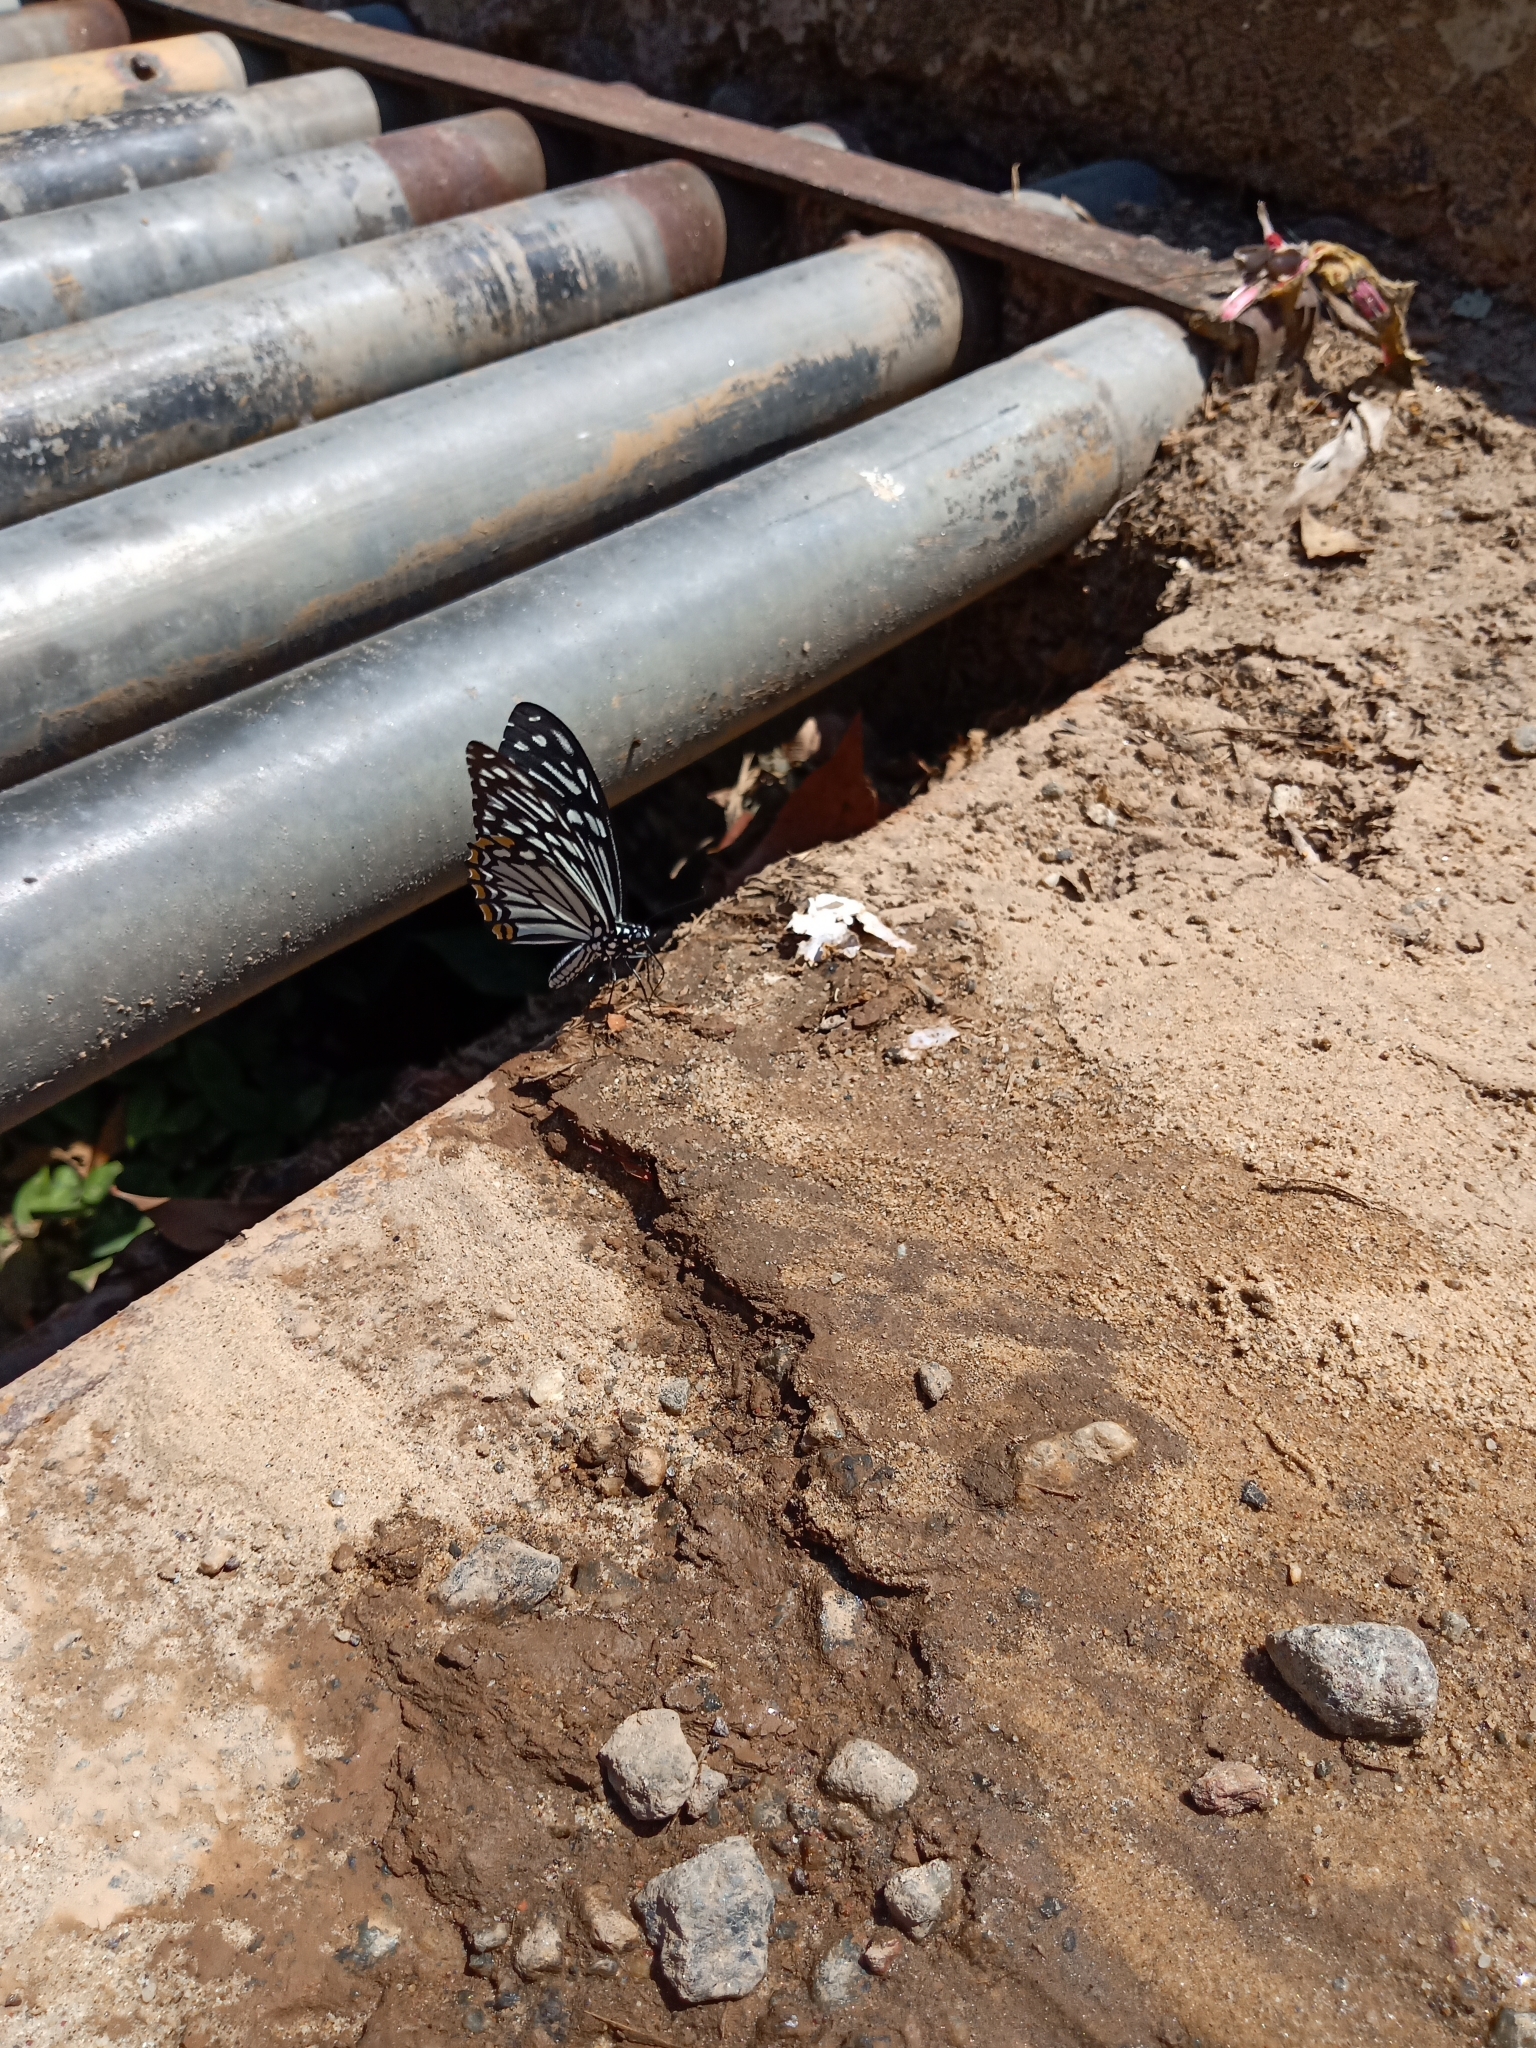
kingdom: Animalia
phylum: Arthropoda
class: Insecta
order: Lepidoptera
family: Papilionidae
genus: Chilasa
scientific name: Chilasa clytia
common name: Common mime
